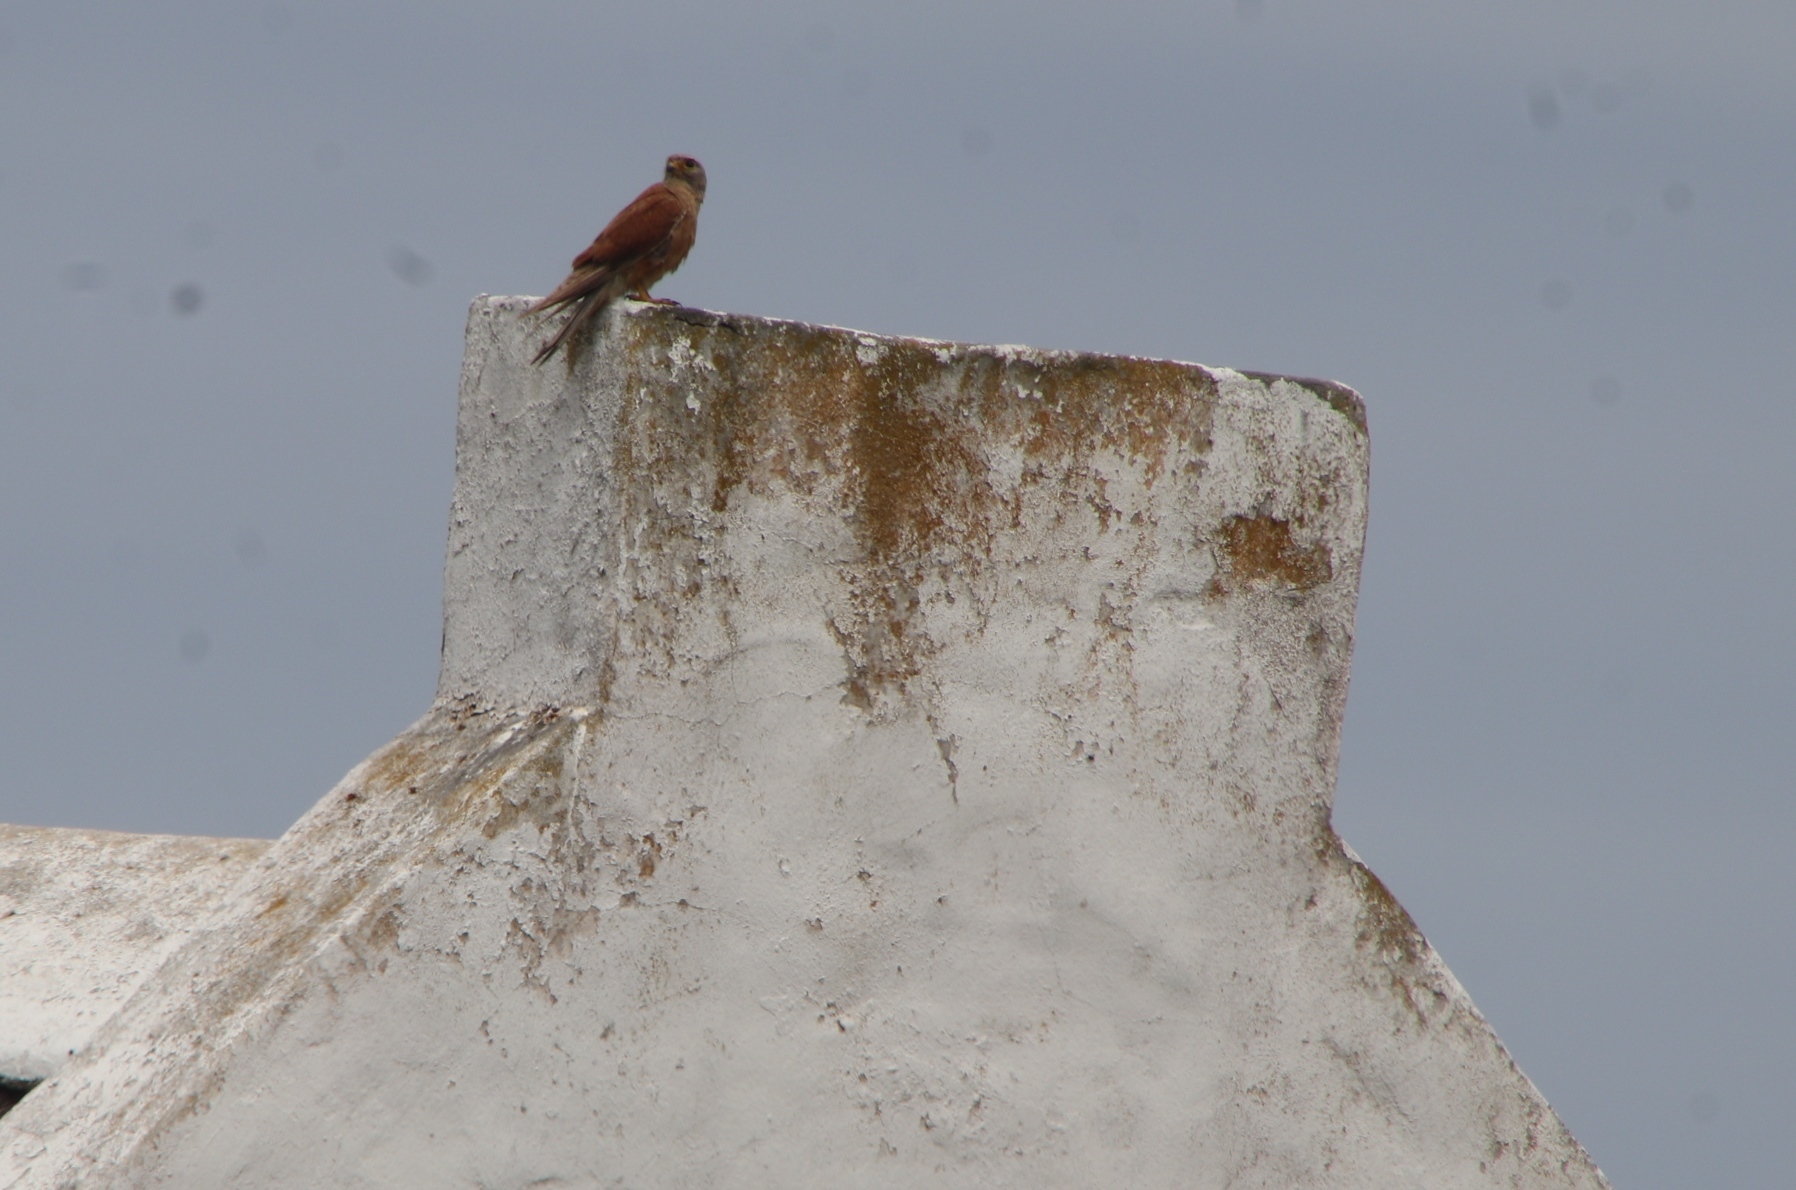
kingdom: Animalia
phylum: Chordata
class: Aves
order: Falconiformes
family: Falconidae
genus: Falco
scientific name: Falco rupicolus
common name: Rock kestrel
